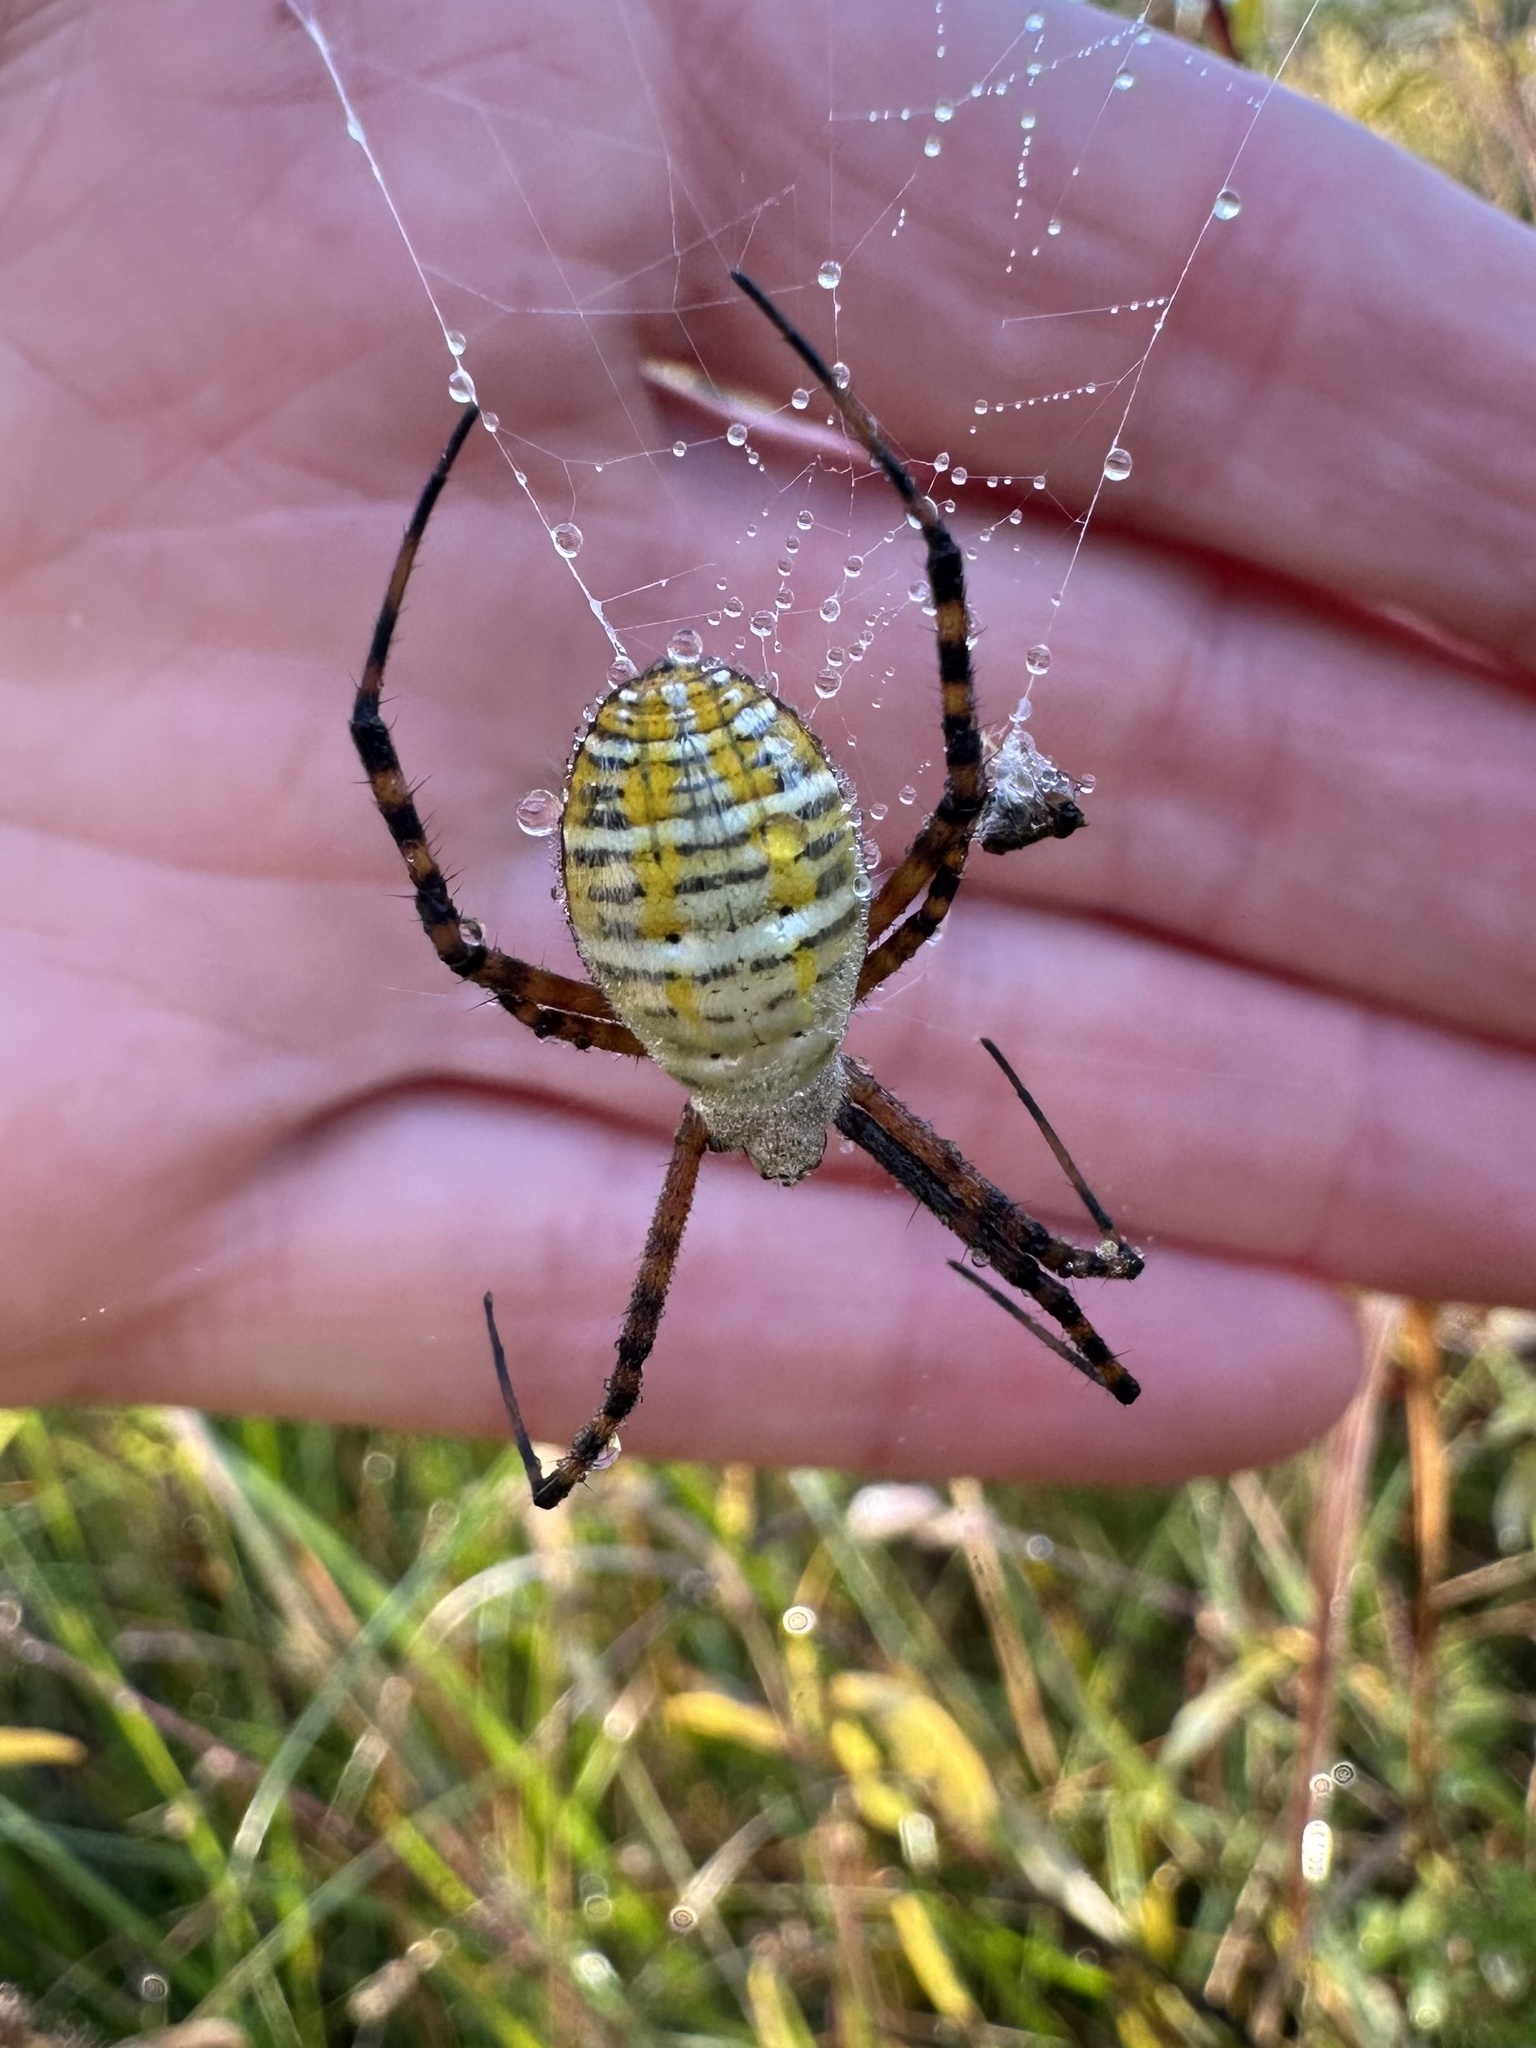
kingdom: Animalia
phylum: Arthropoda
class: Arachnida
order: Araneae
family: Araneidae
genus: Argiope
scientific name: Argiope trifasciata
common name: Banded garden spider
